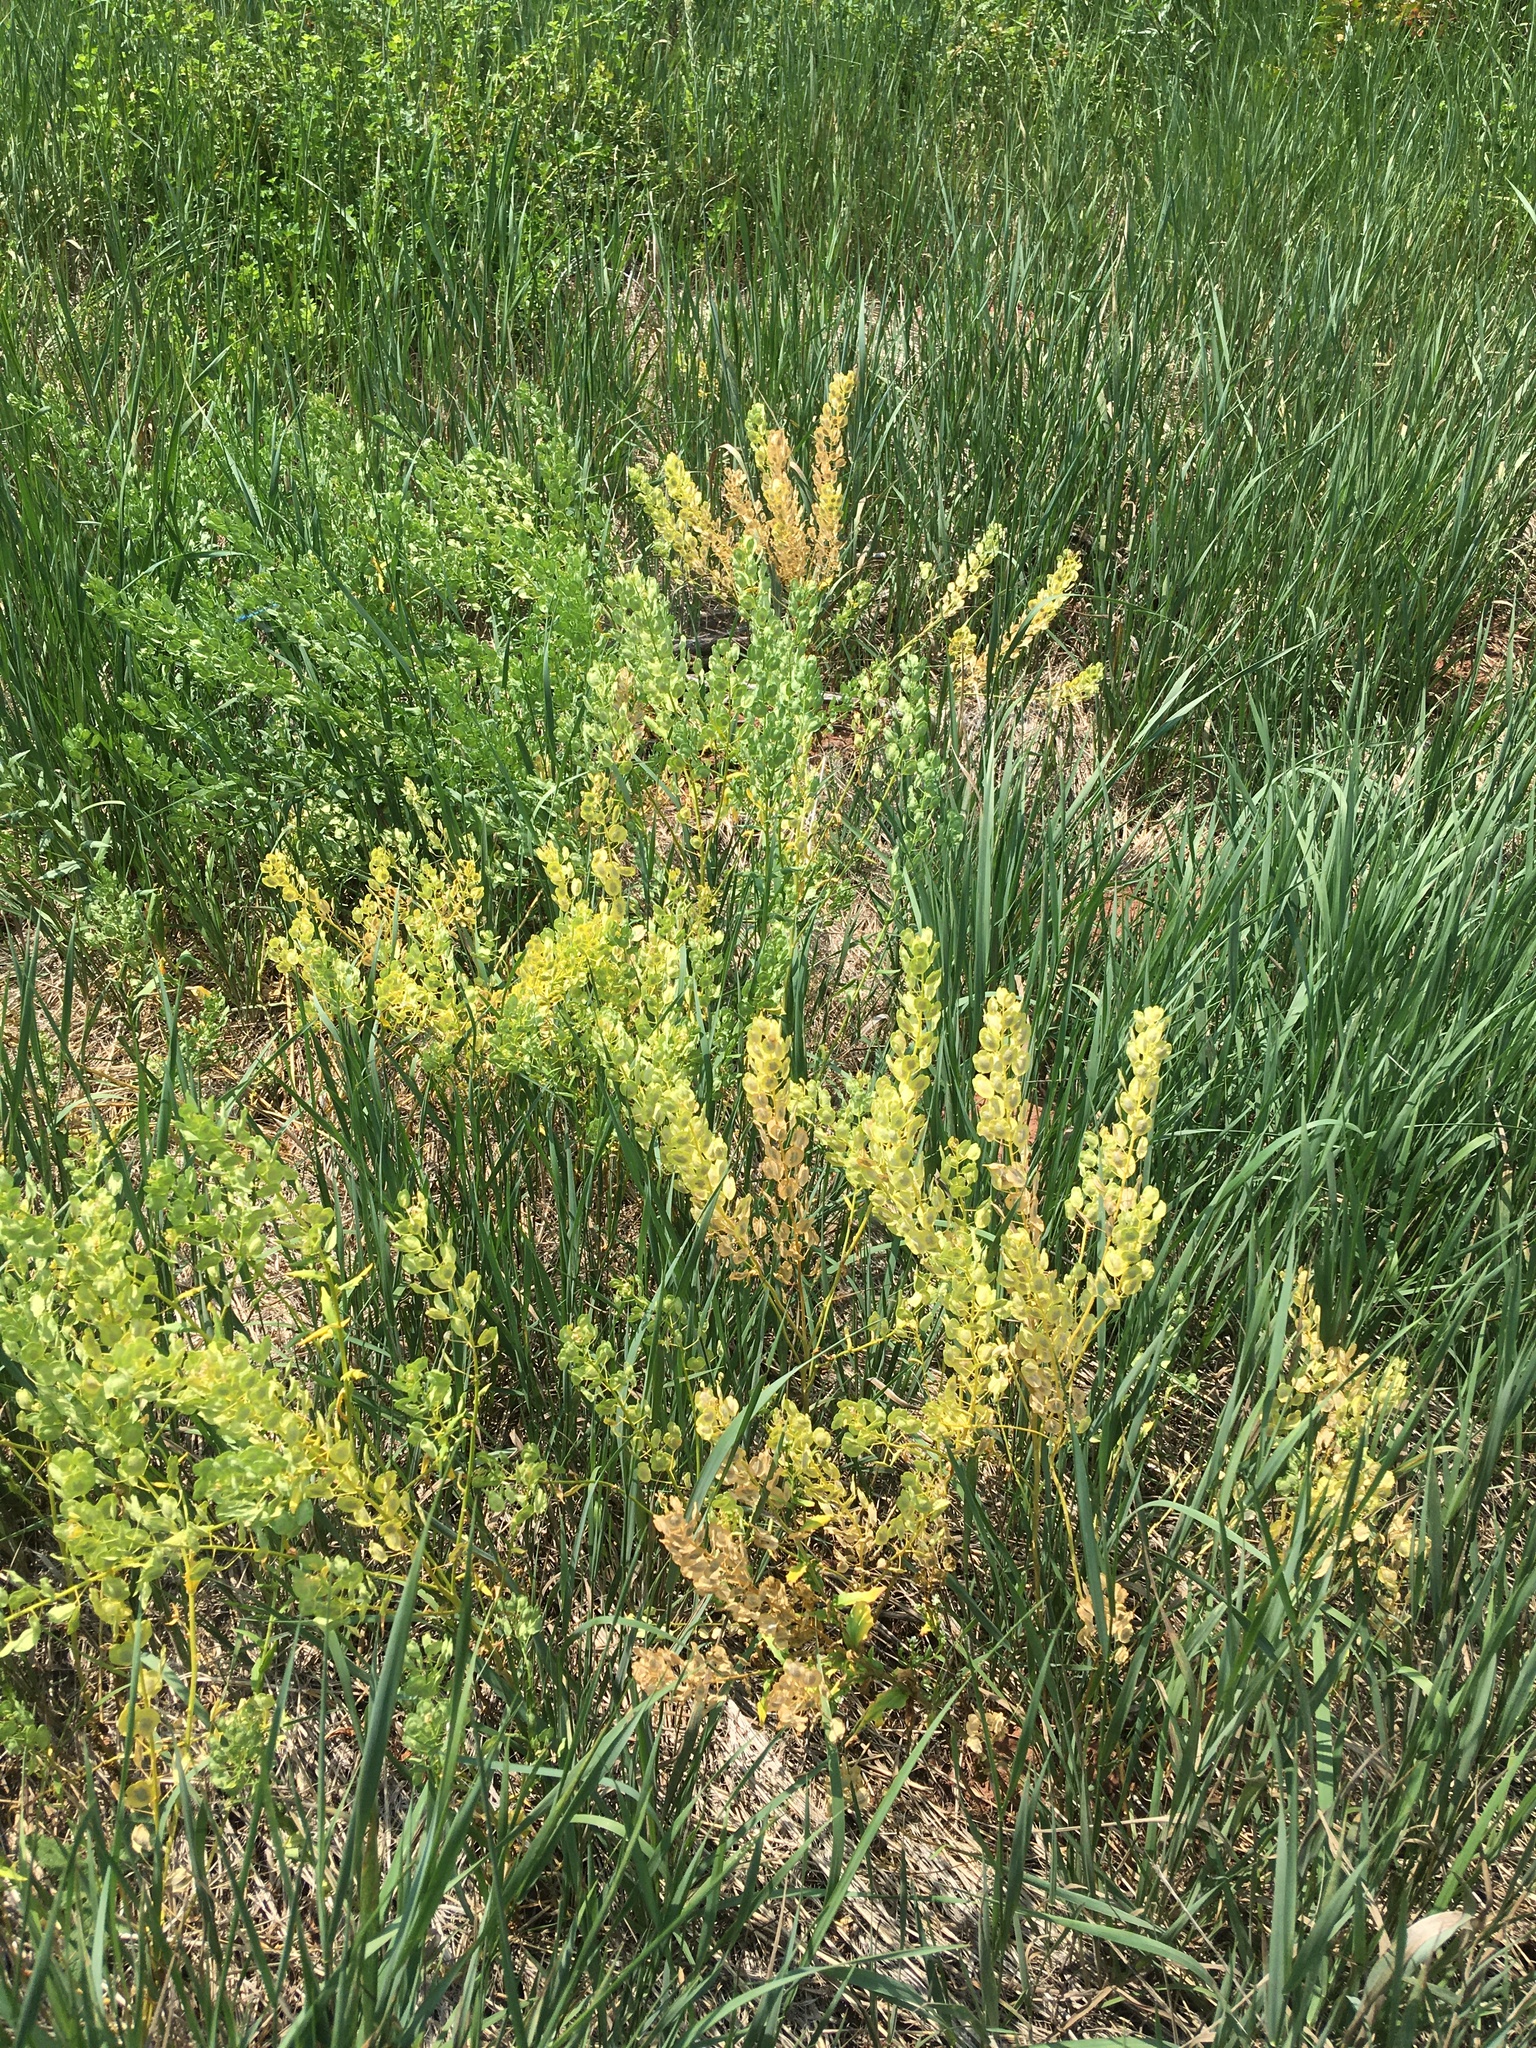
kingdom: Plantae
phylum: Tracheophyta
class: Magnoliopsida
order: Brassicales
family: Brassicaceae
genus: Thlaspi
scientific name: Thlaspi arvense
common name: Field pennycress
